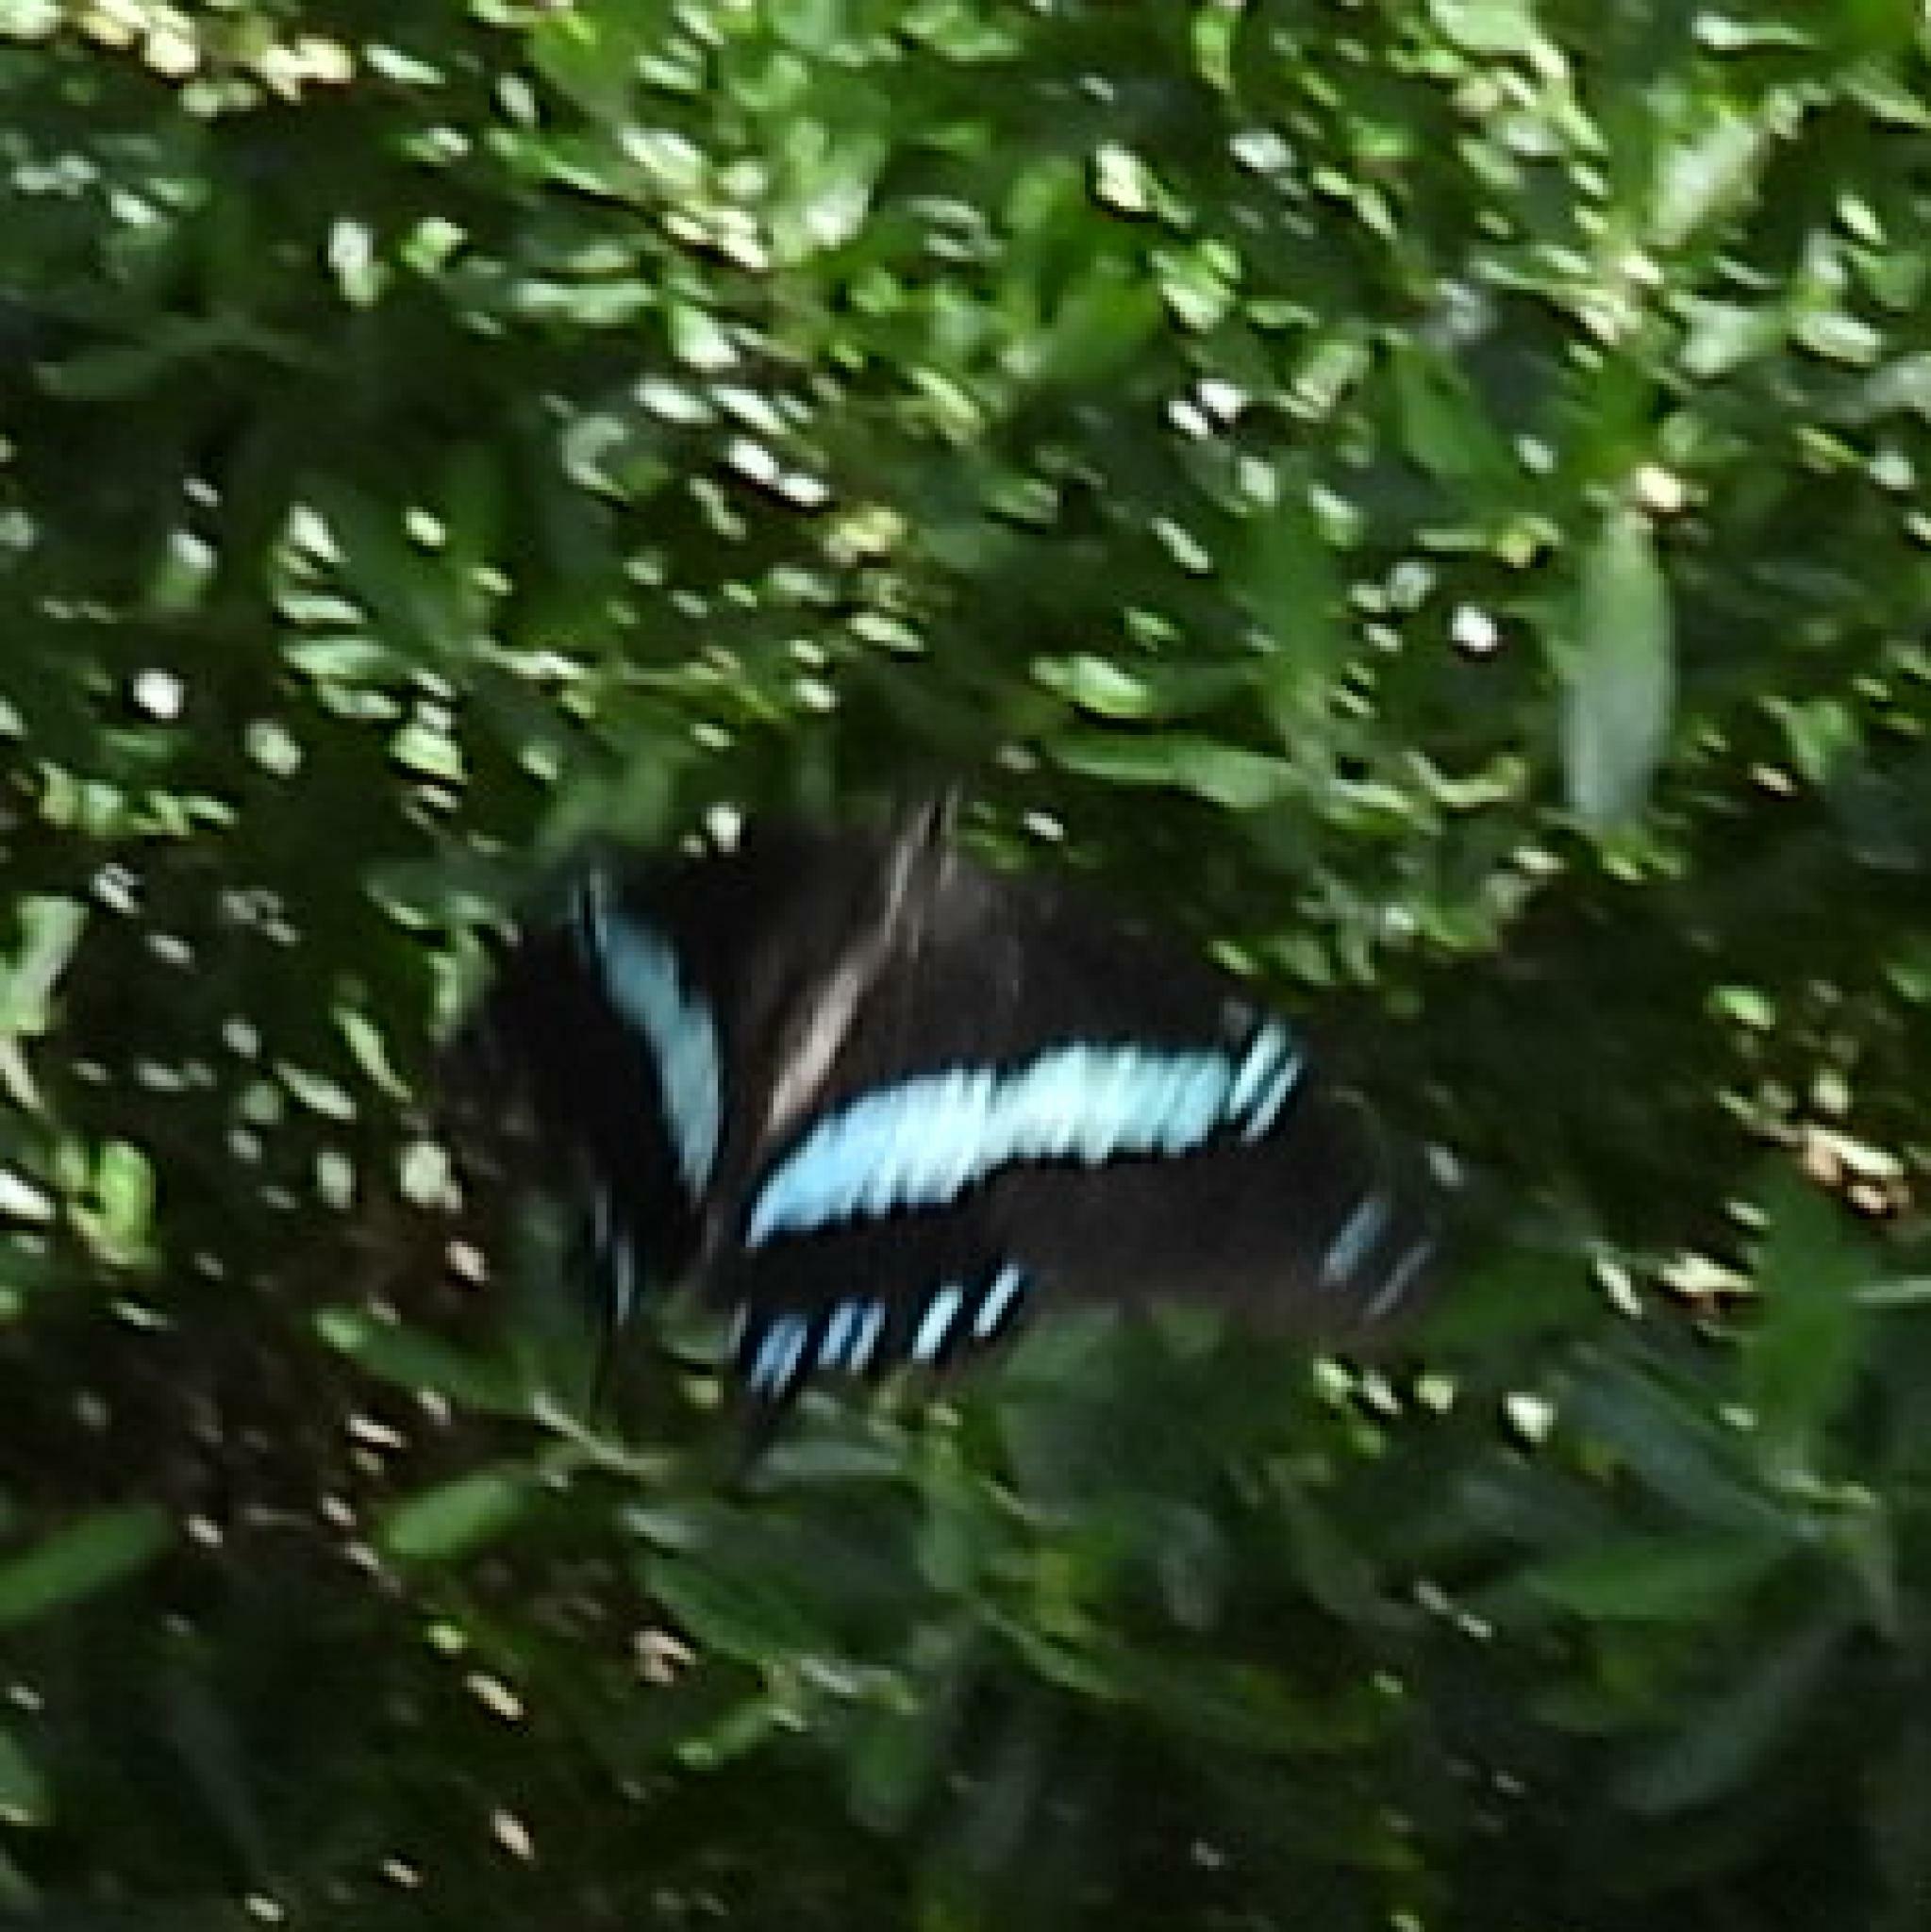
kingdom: Animalia
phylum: Arthropoda
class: Insecta
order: Lepidoptera
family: Papilionidae
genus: Papilio
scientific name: Papilio nireus
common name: Greenbanded swallowtail
